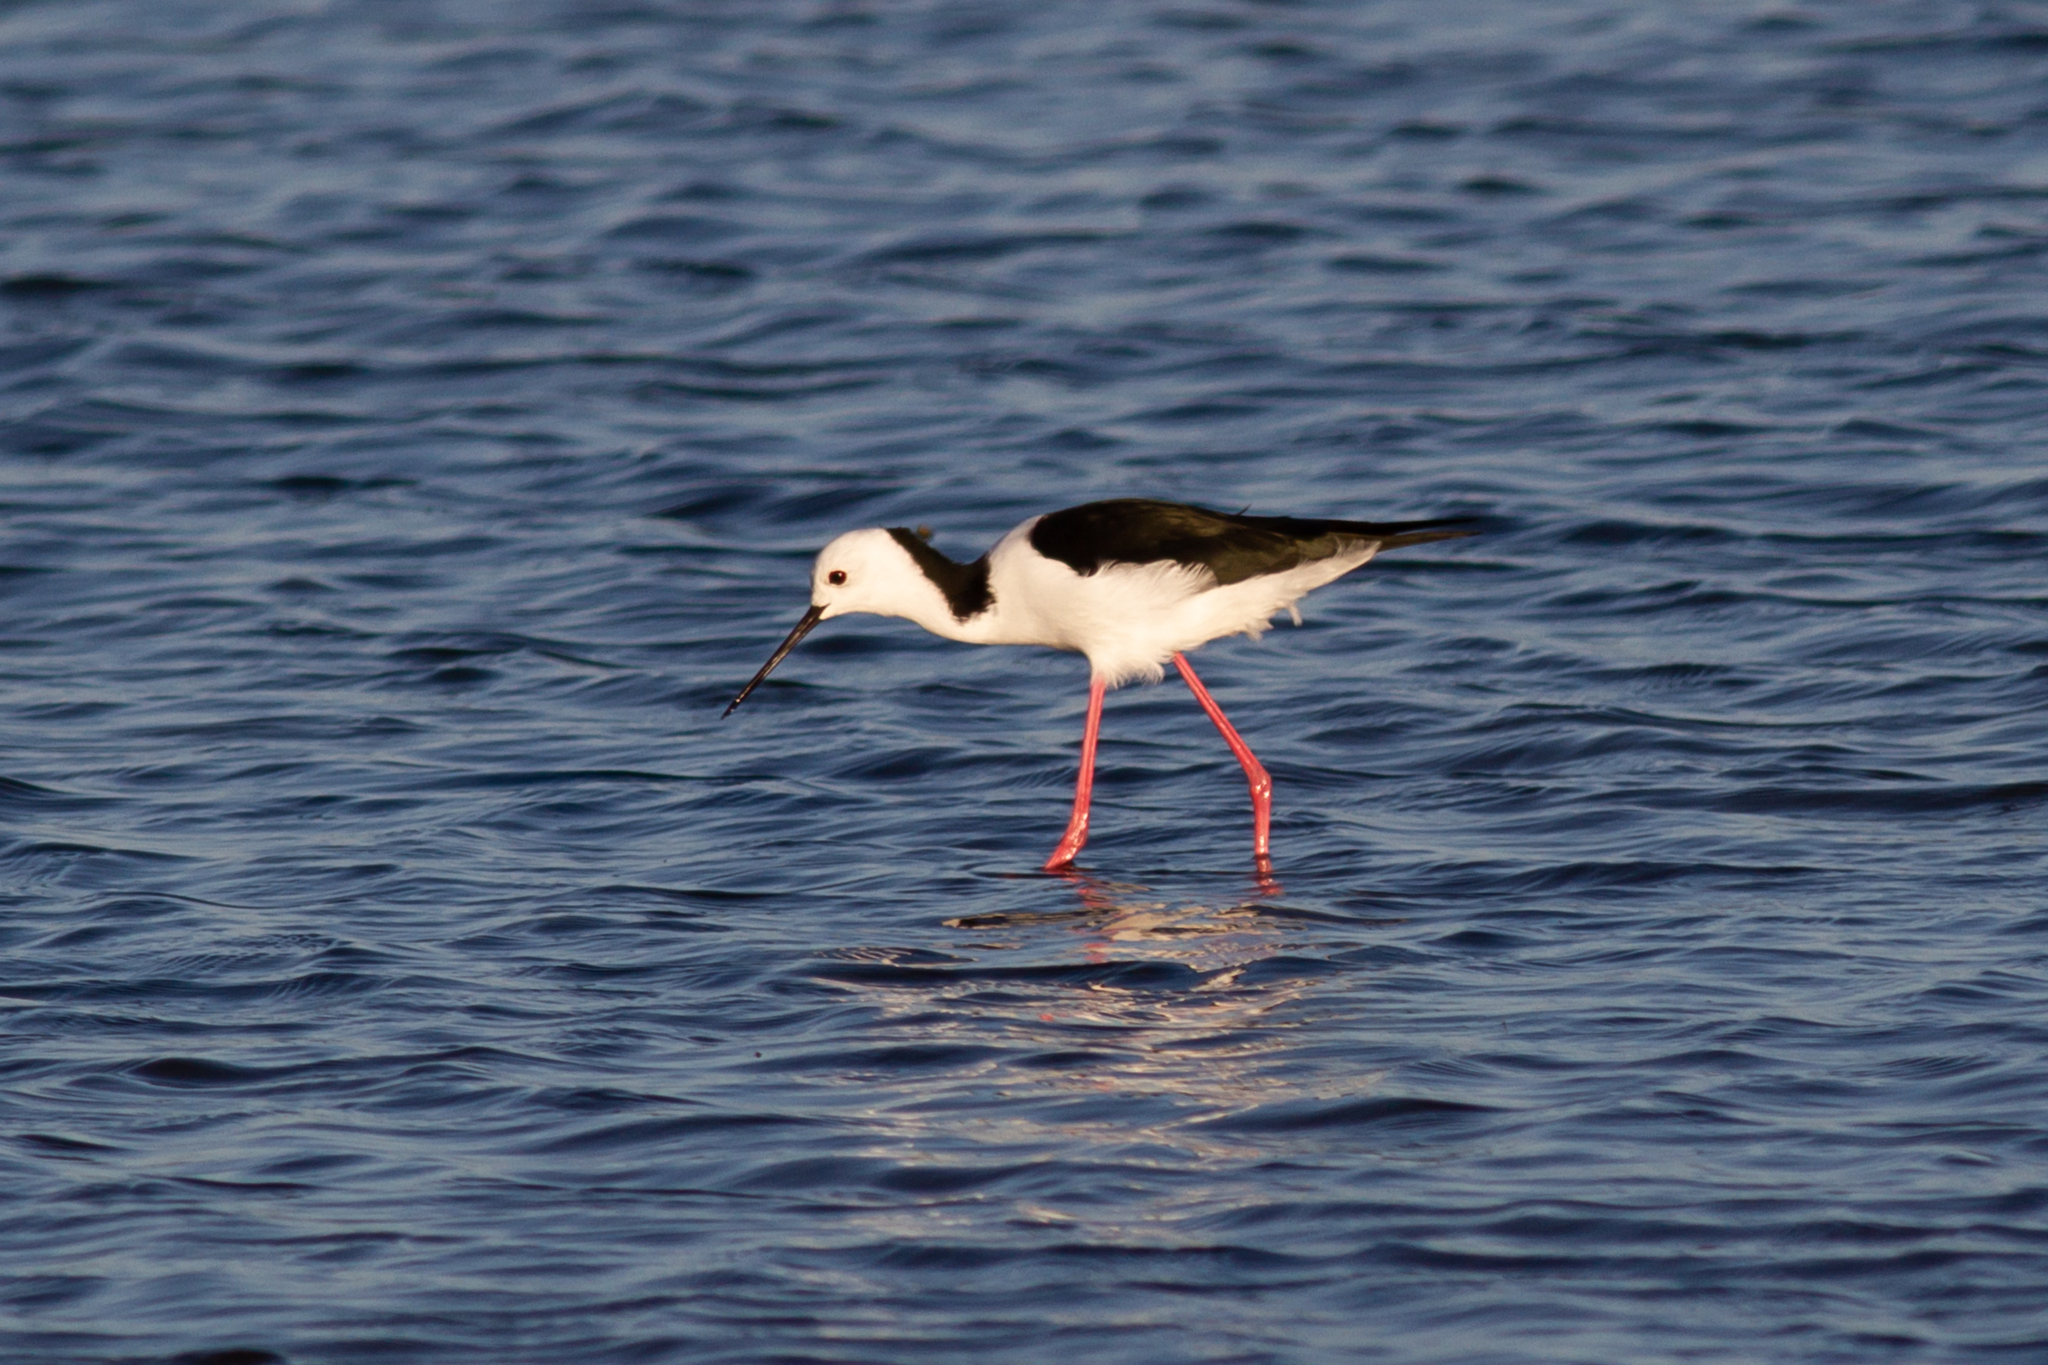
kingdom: Animalia
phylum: Chordata
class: Aves
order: Charadriiformes
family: Recurvirostridae
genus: Himantopus
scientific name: Himantopus leucocephalus
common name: White-headed stilt
